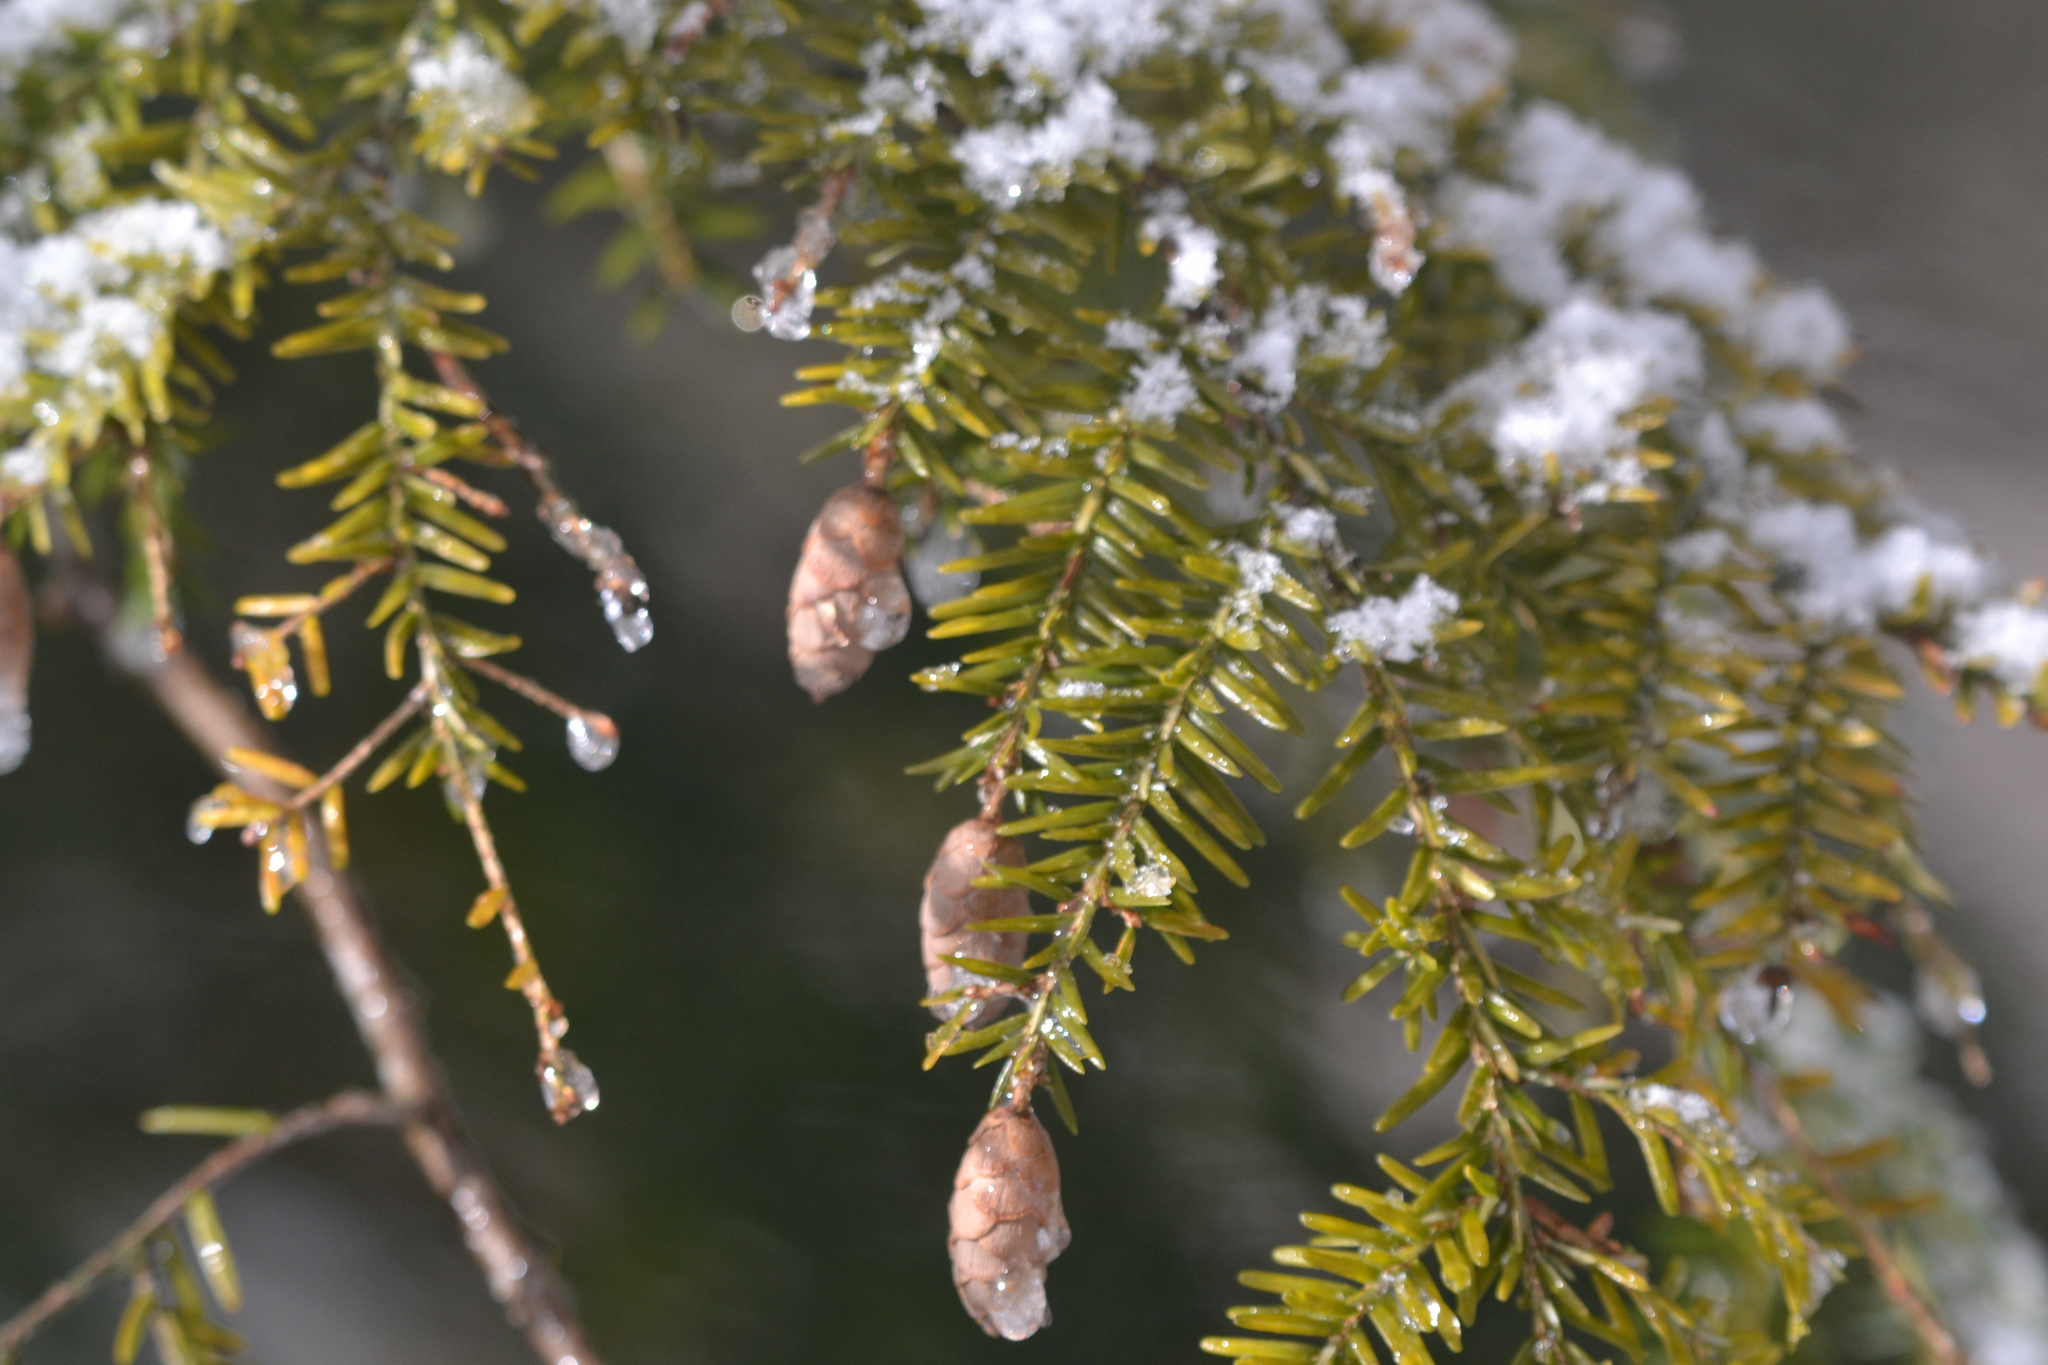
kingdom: Plantae
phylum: Tracheophyta
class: Pinopsida
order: Pinales
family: Pinaceae
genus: Tsuga
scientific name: Tsuga canadensis
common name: Eastern hemlock
